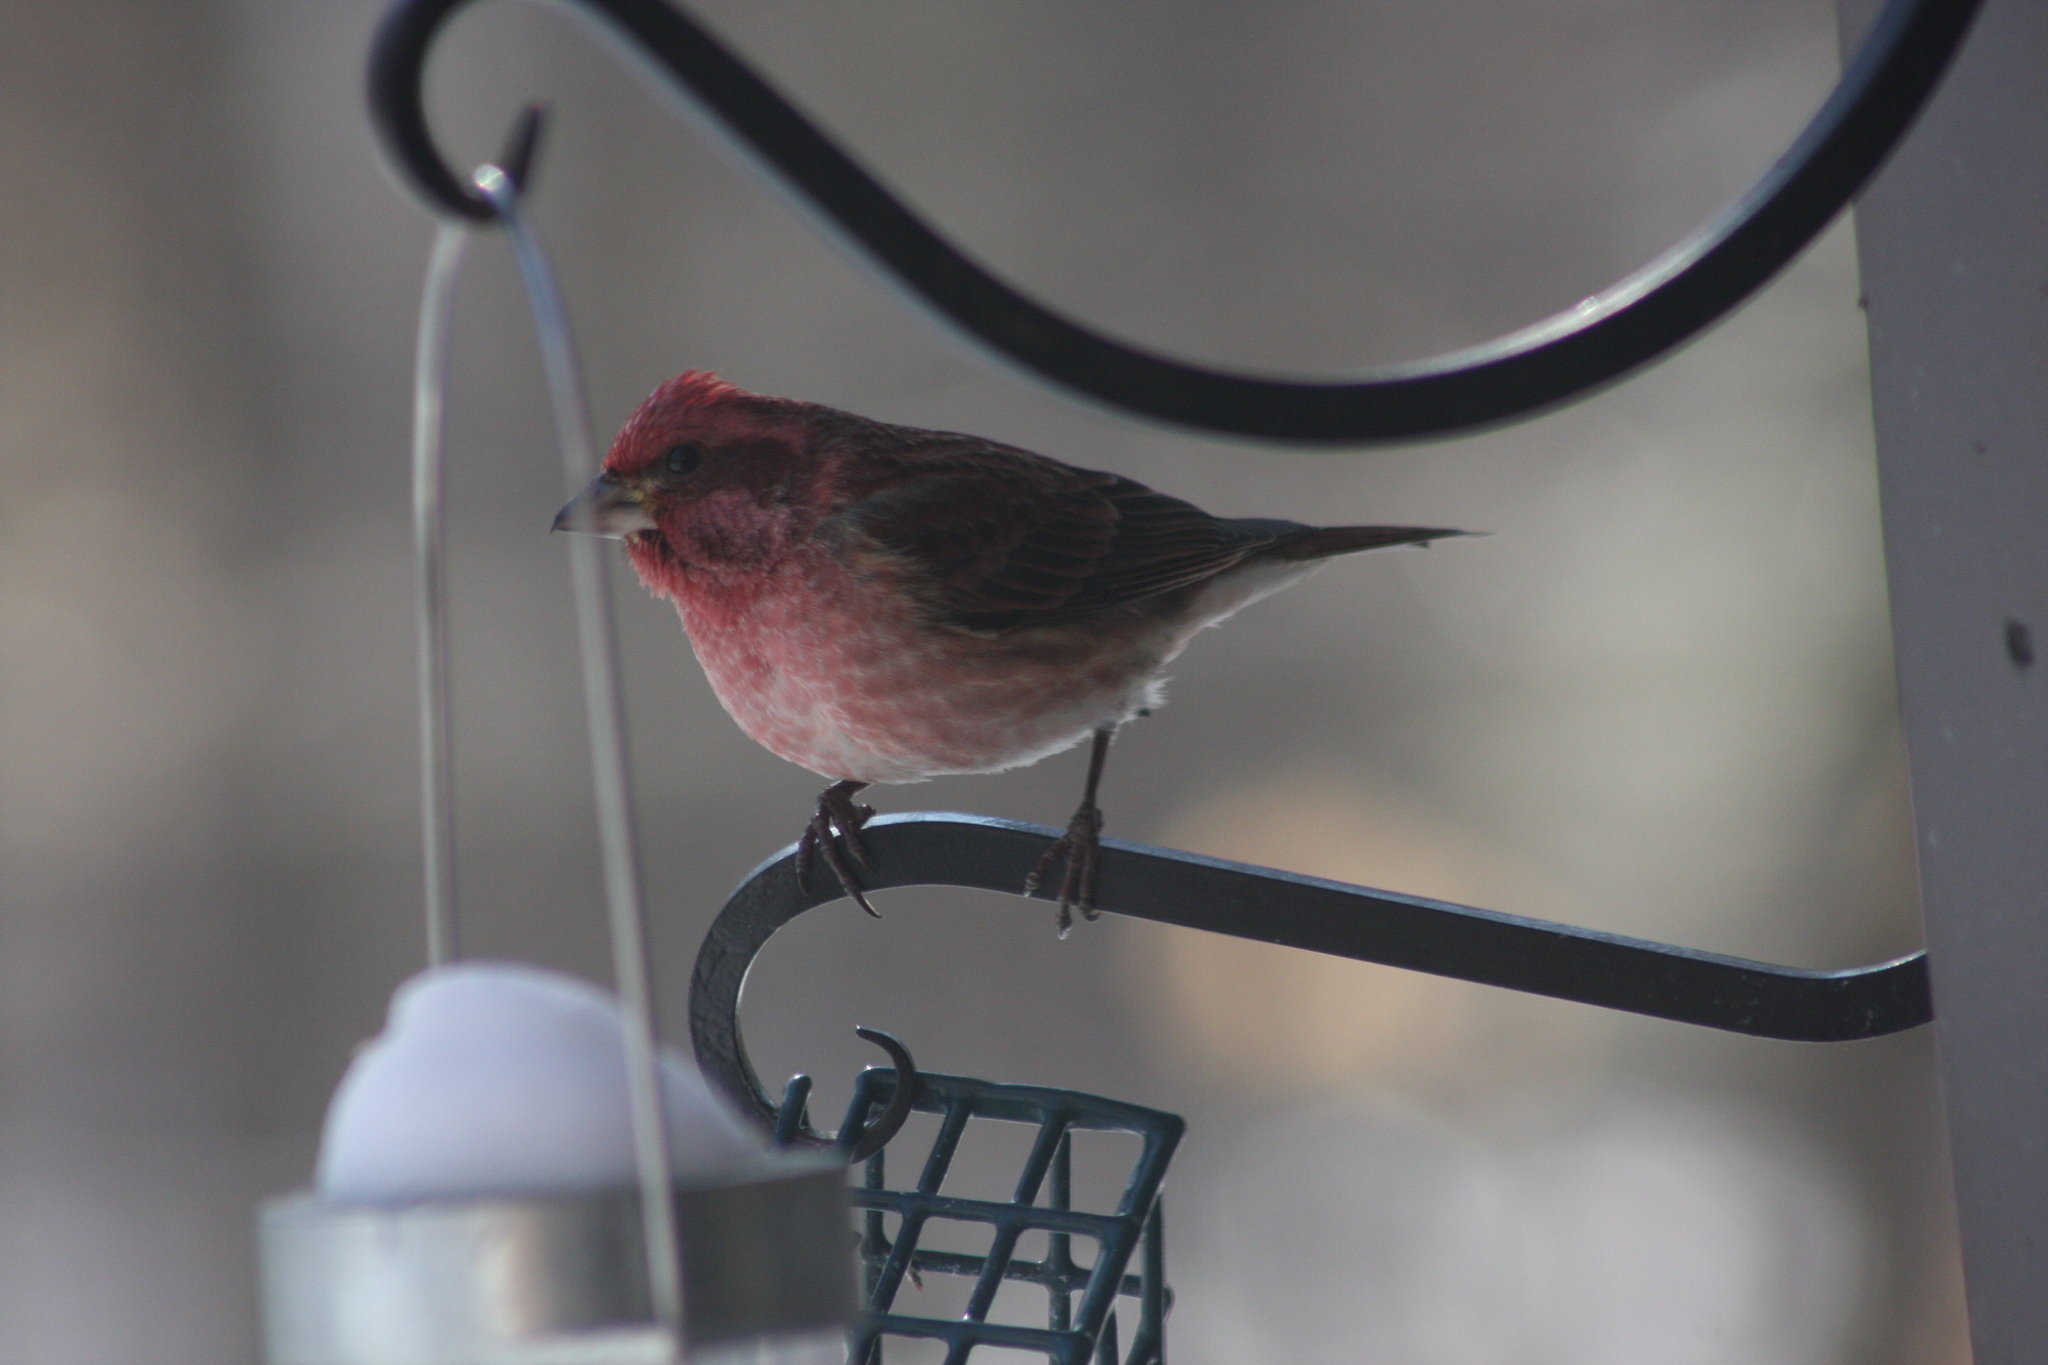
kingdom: Animalia
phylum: Chordata
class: Aves
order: Passeriformes
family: Fringillidae
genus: Haemorhous
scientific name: Haemorhous purpureus
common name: Purple finch
